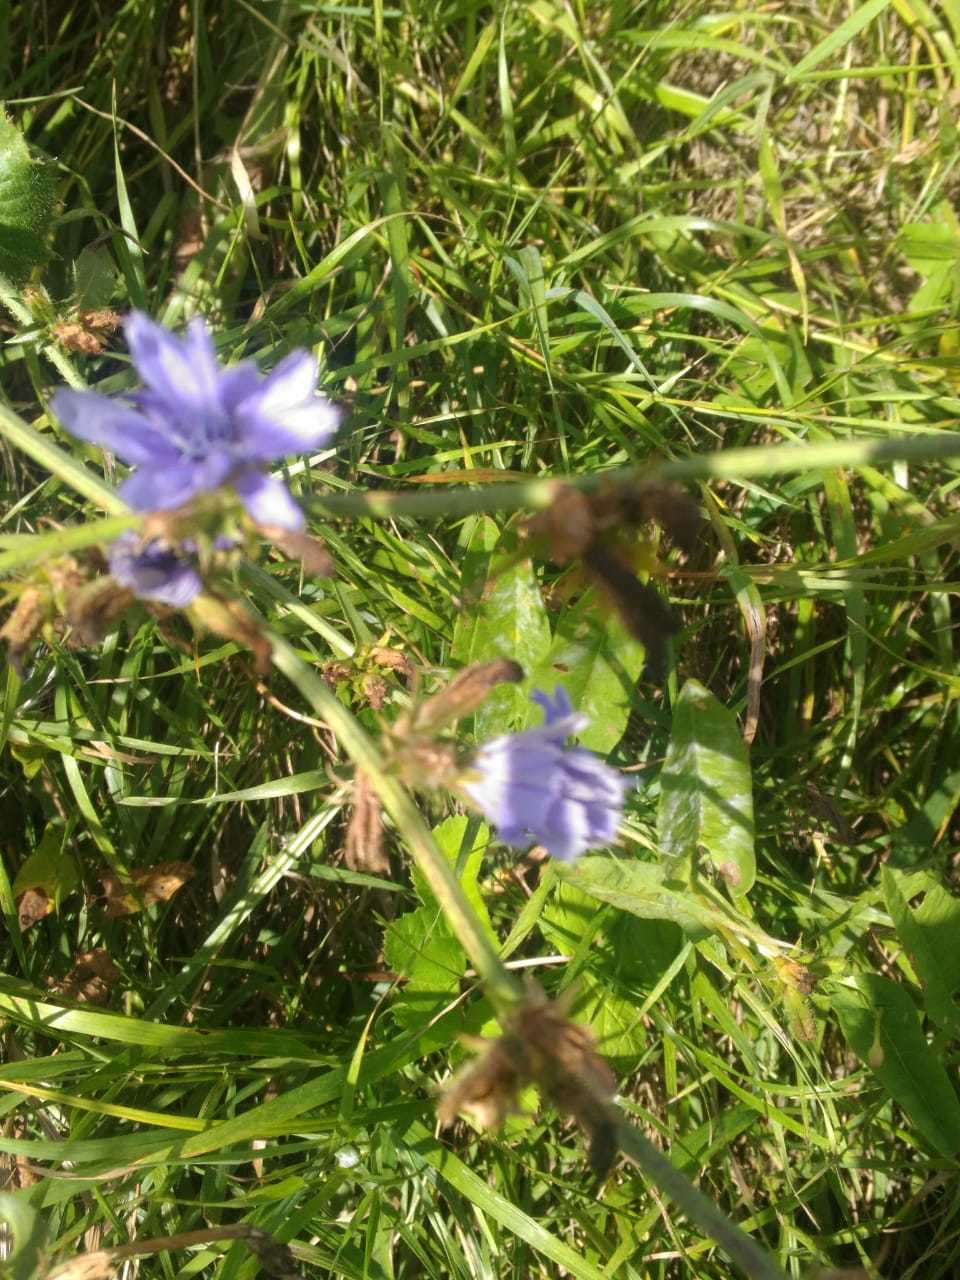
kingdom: Plantae
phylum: Tracheophyta
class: Magnoliopsida
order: Asterales
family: Asteraceae
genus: Cichorium
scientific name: Cichorium intybus
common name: Chicory
